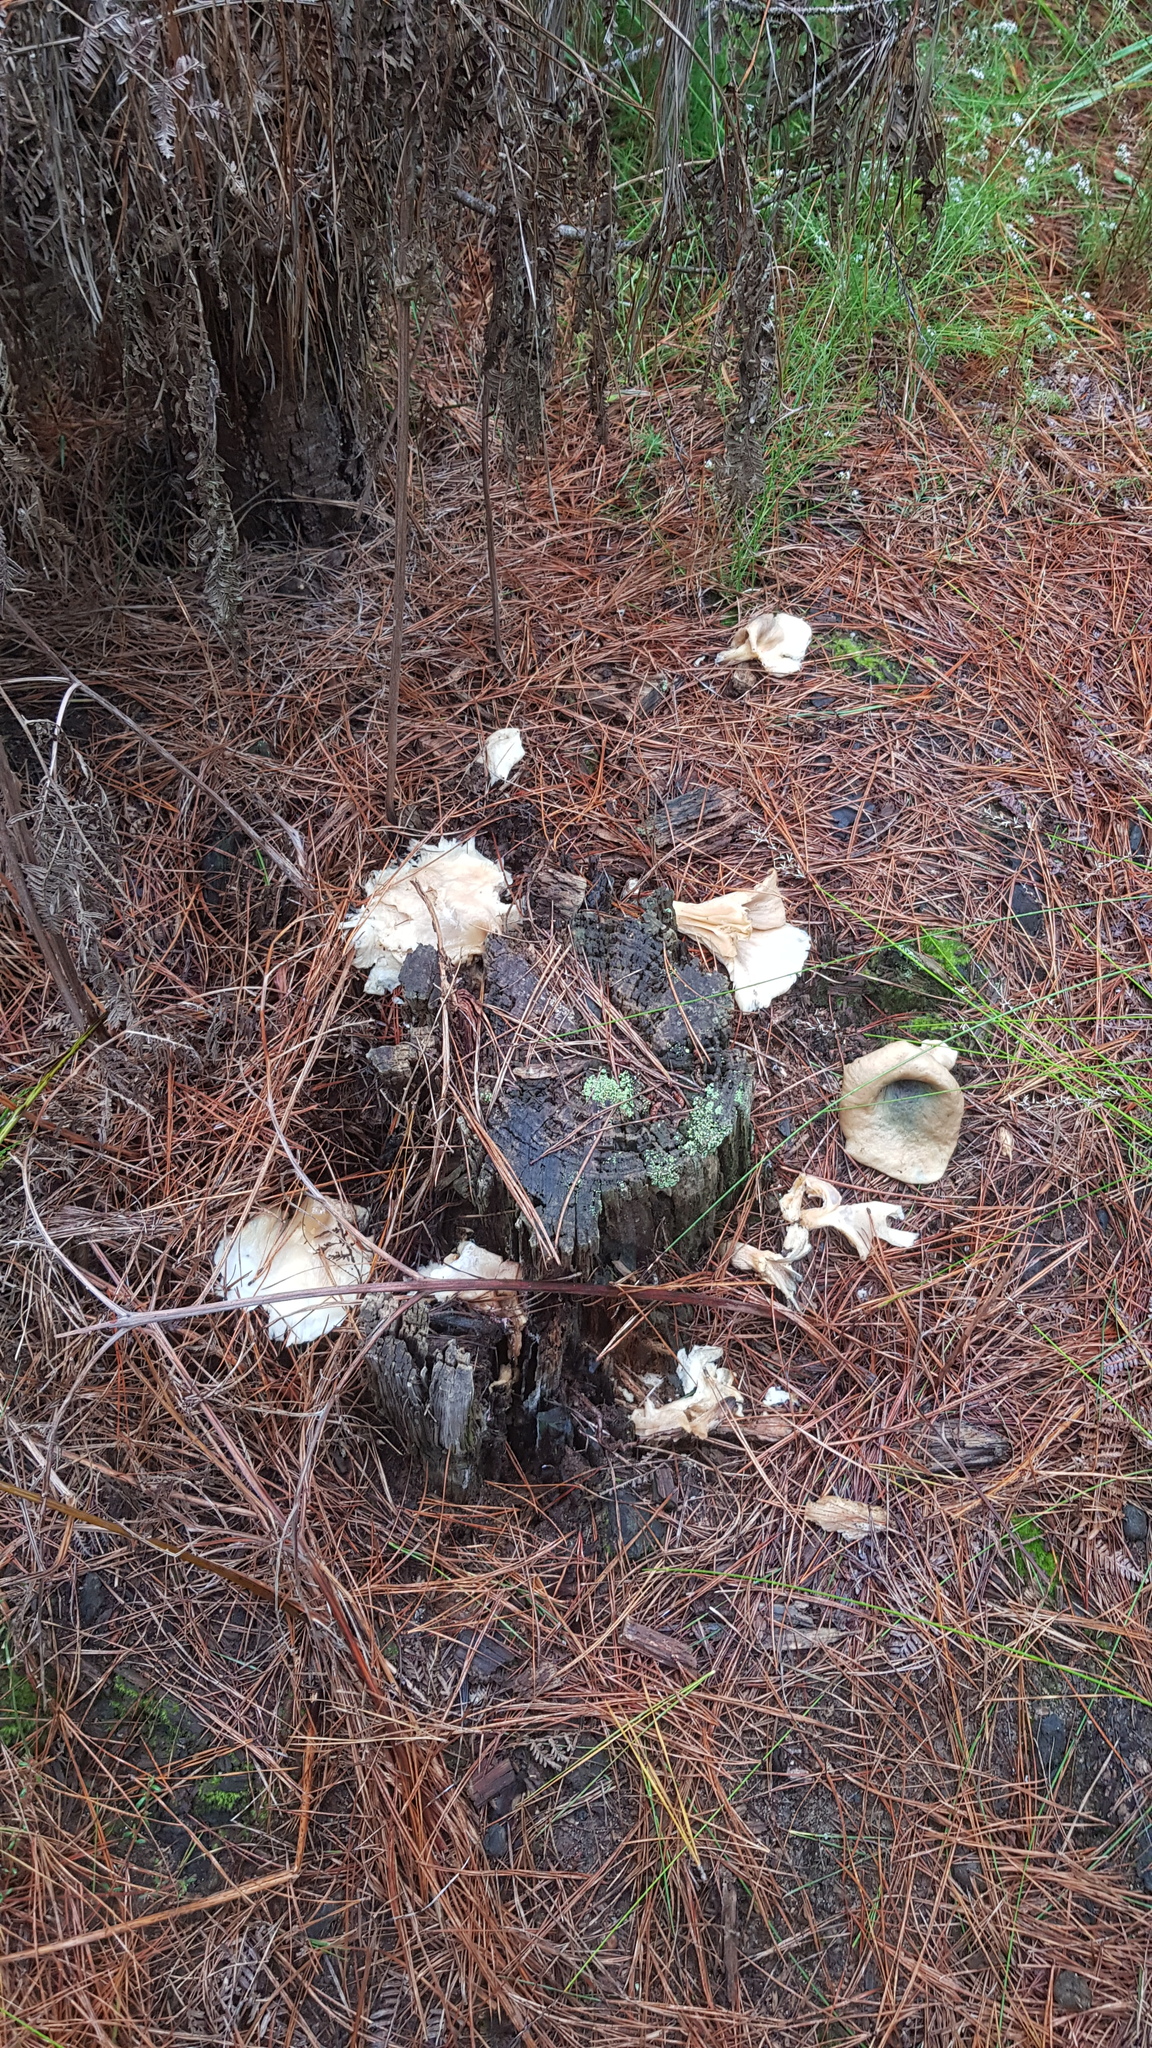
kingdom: Fungi
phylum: Basidiomycota
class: Agaricomycetes
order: Agaricales
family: Omphalotaceae
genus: Omphalotus
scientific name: Omphalotus nidiformis
